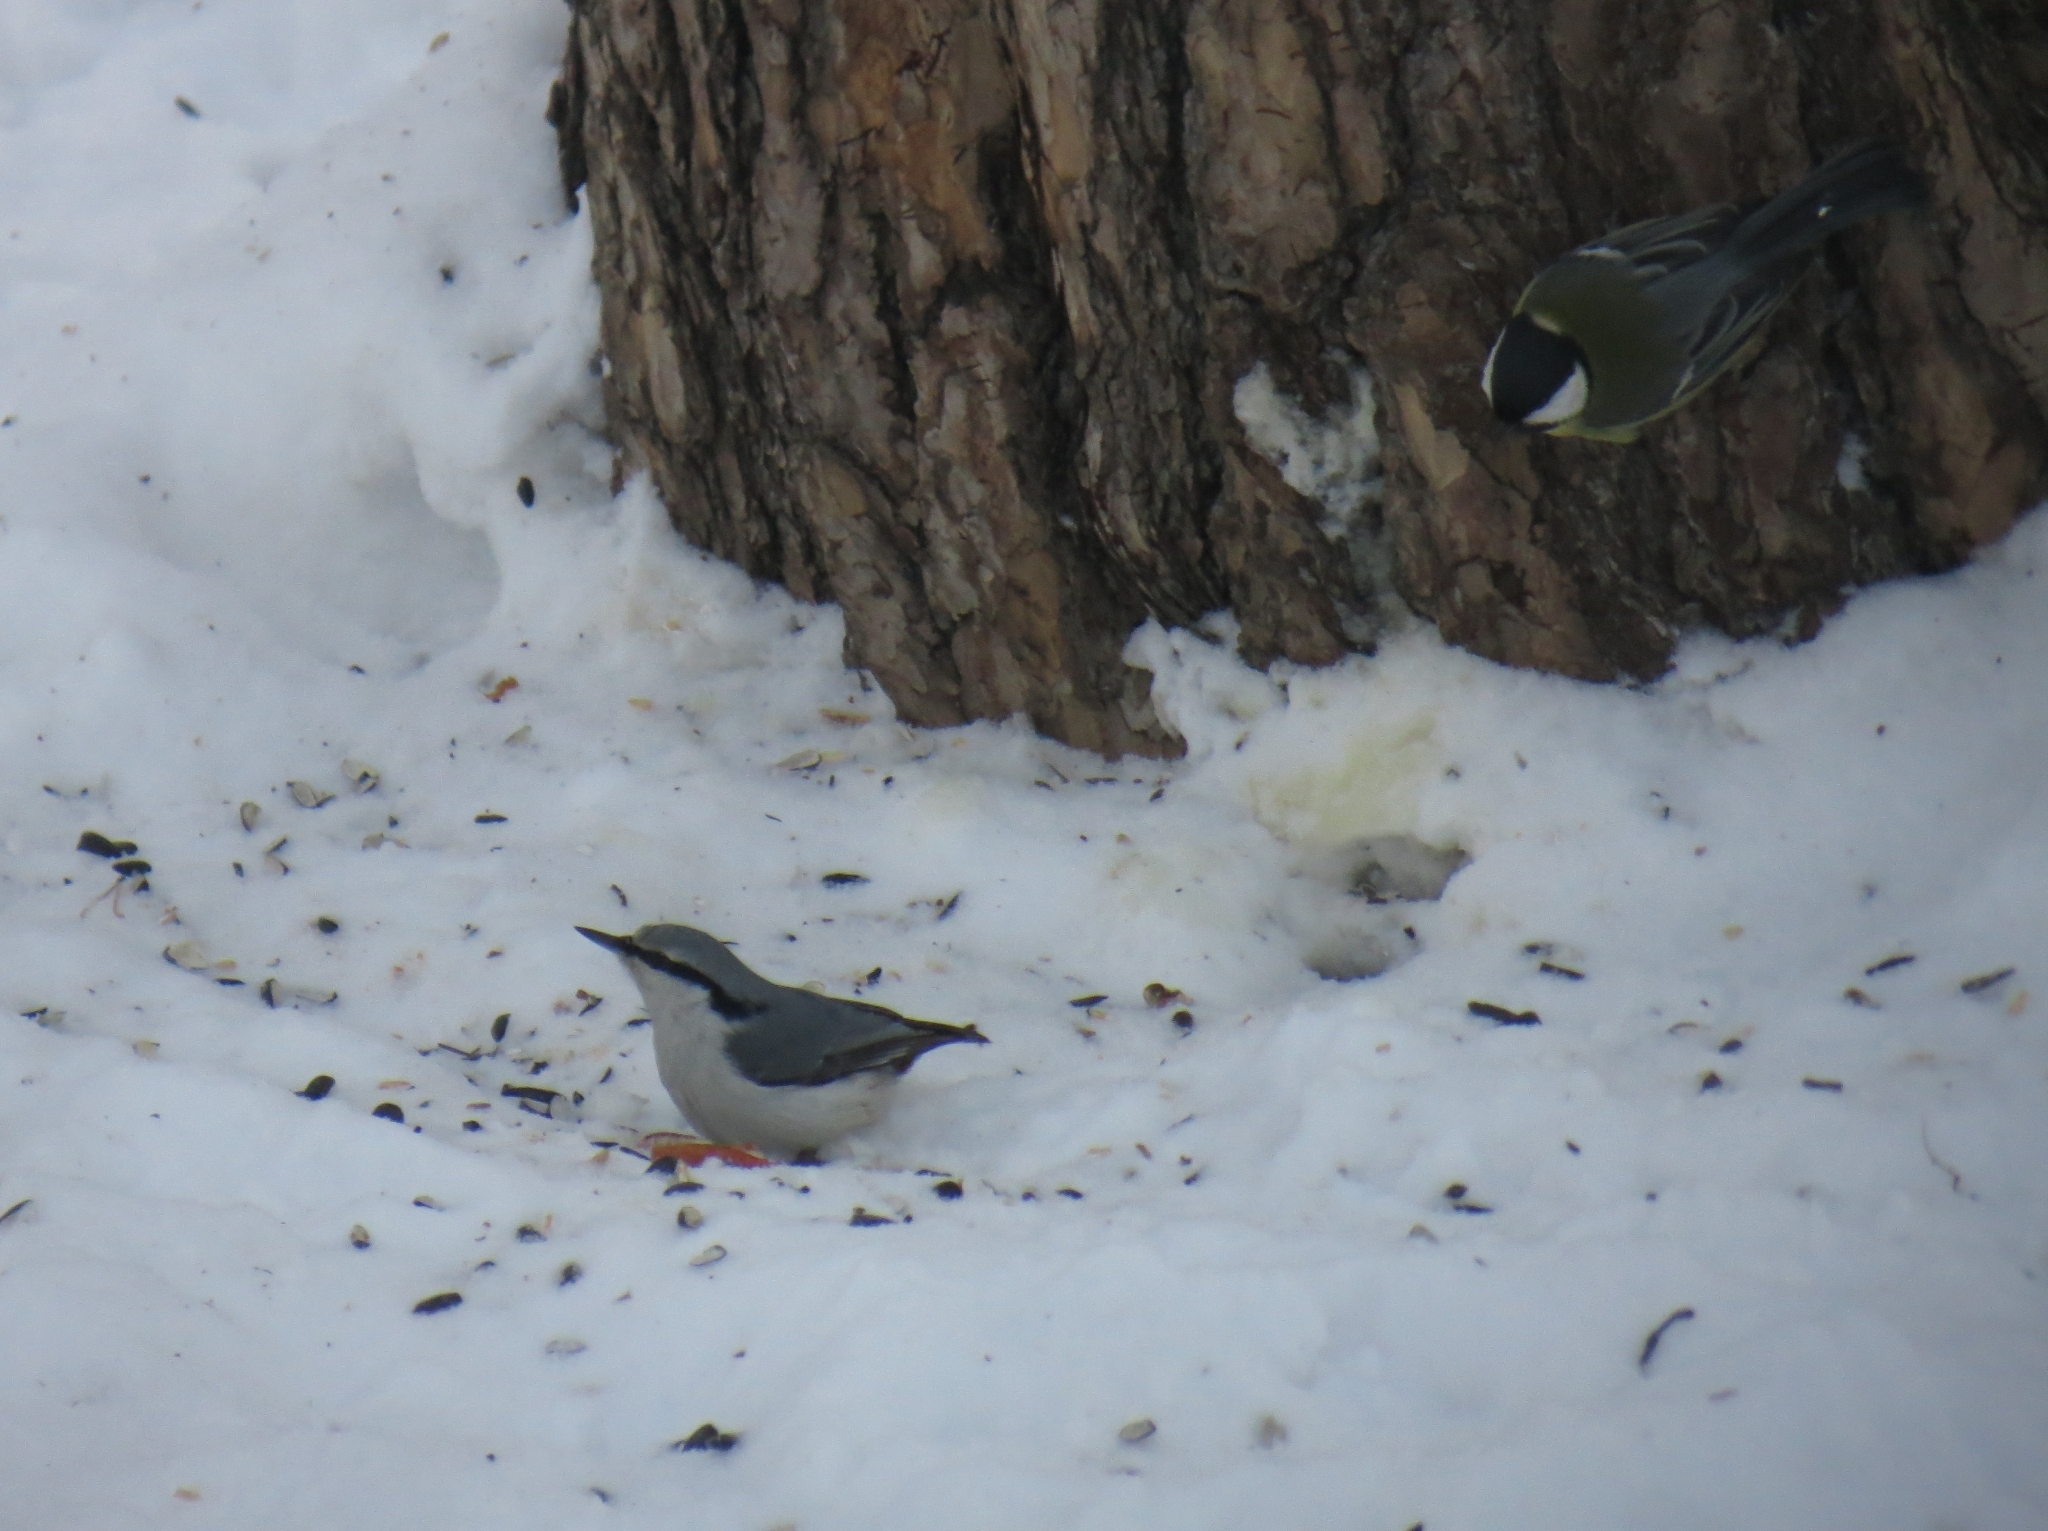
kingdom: Animalia
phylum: Chordata
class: Aves
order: Passeriformes
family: Sittidae
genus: Sitta
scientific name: Sitta europaea
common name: Eurasian nuthatch
